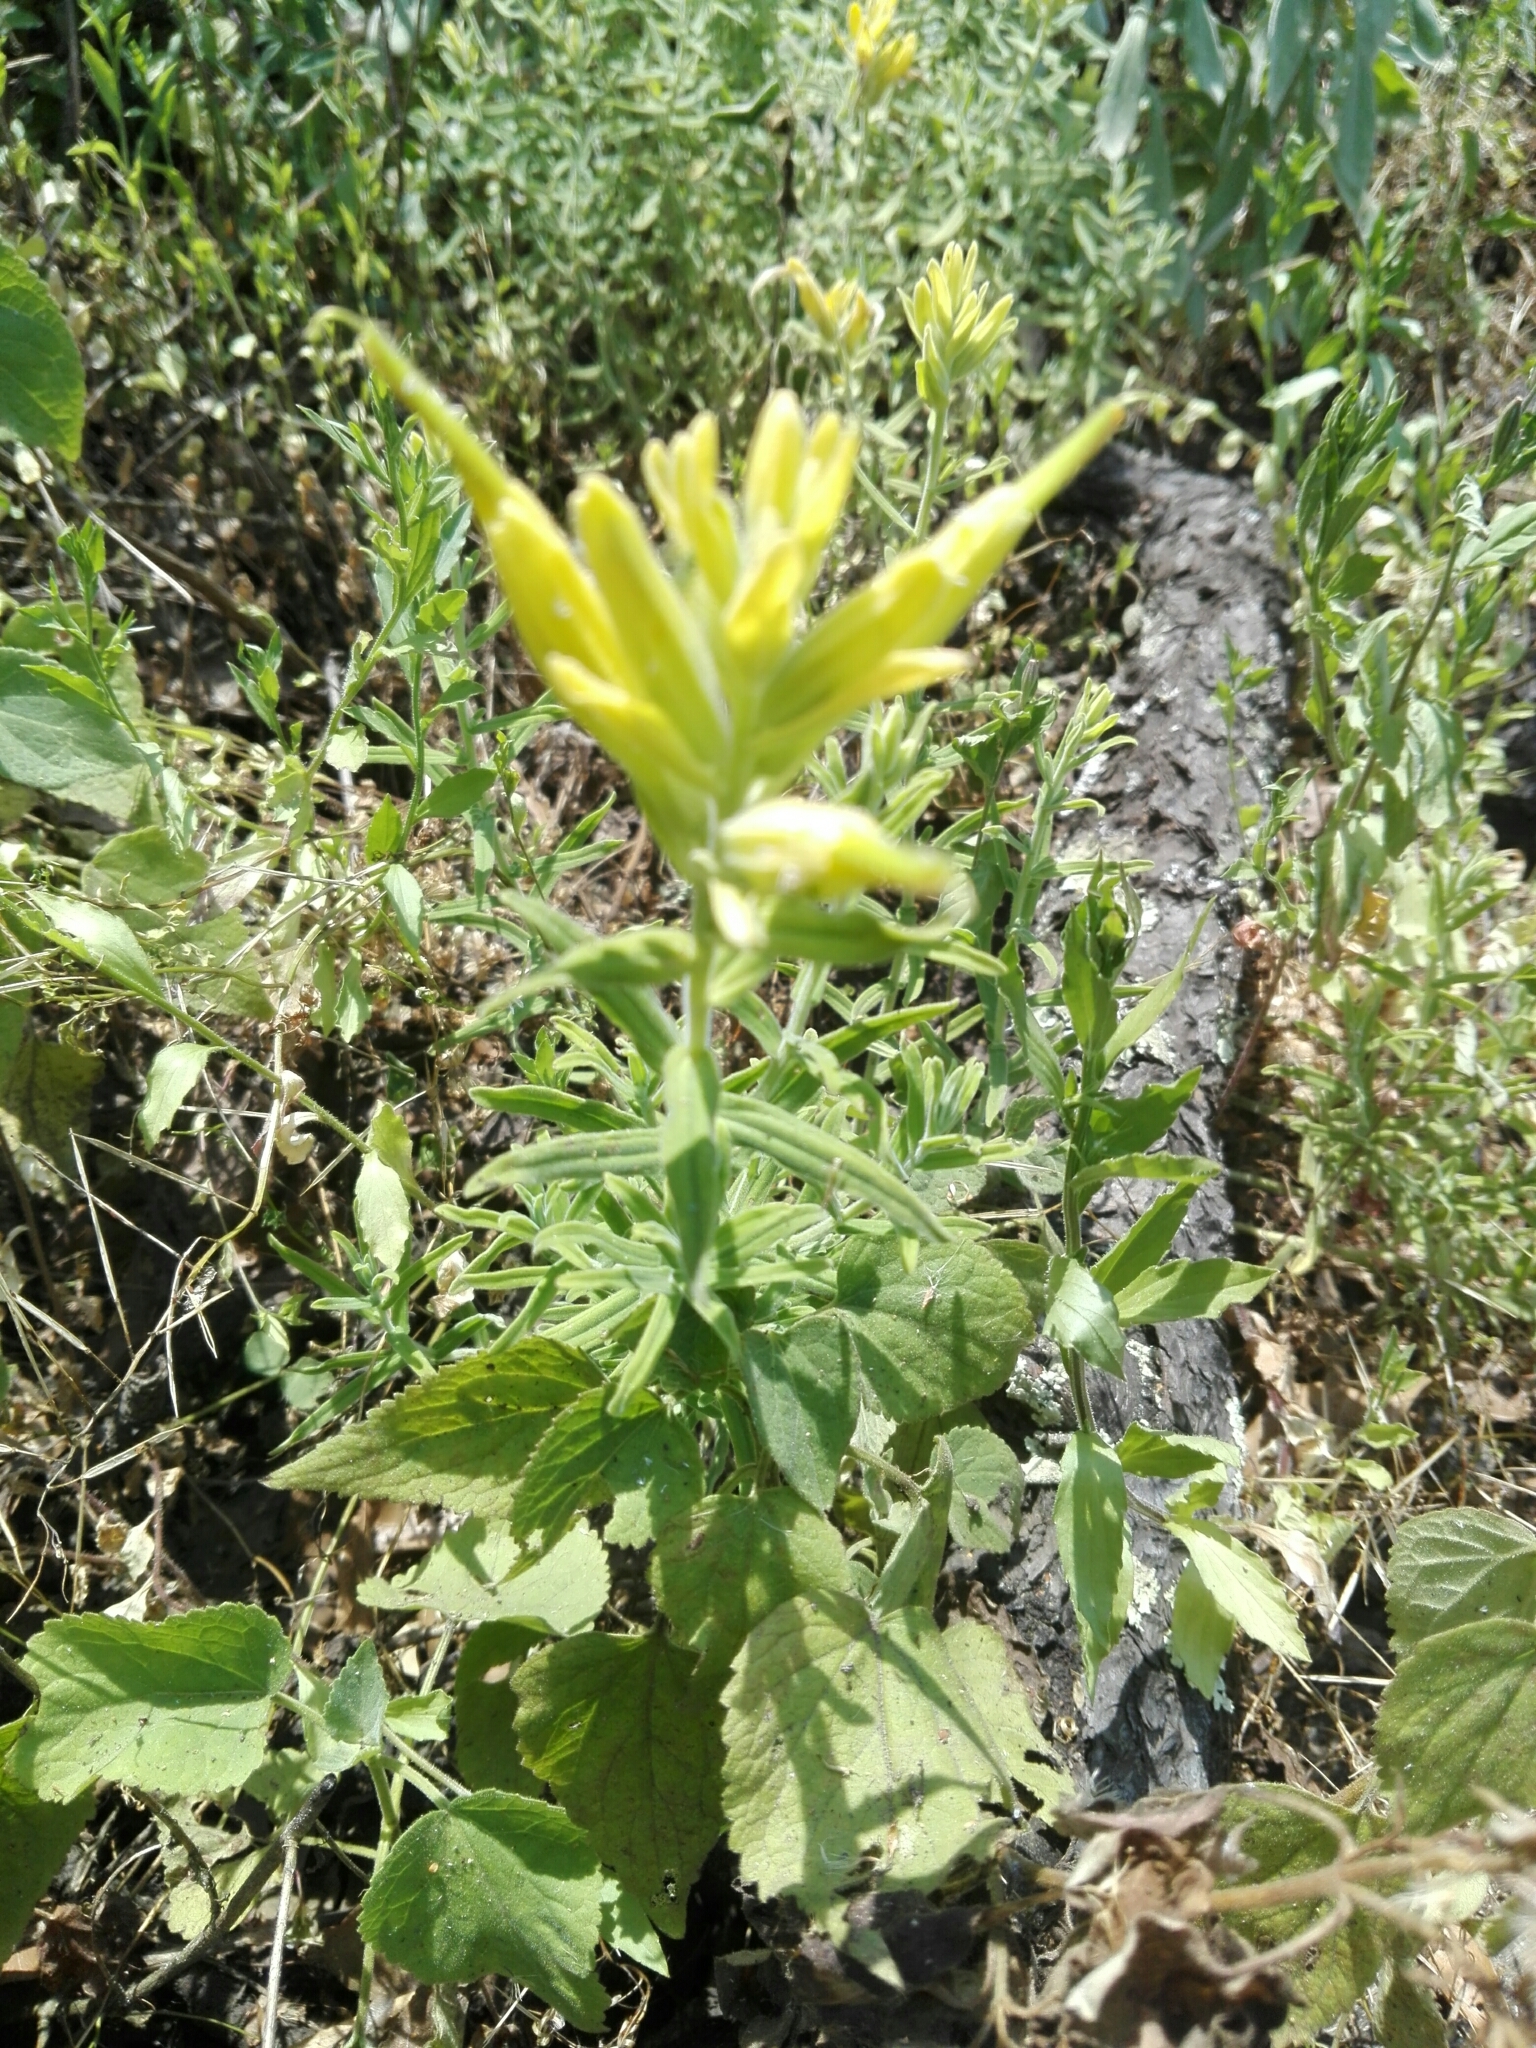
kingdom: Plantae
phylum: Tracheophyta
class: Magnoliopsida
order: Lamiales
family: Orobanchaceae
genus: Castilleja
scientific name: Castilleja tenuiflora
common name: Santa catalina indian paintbrush
